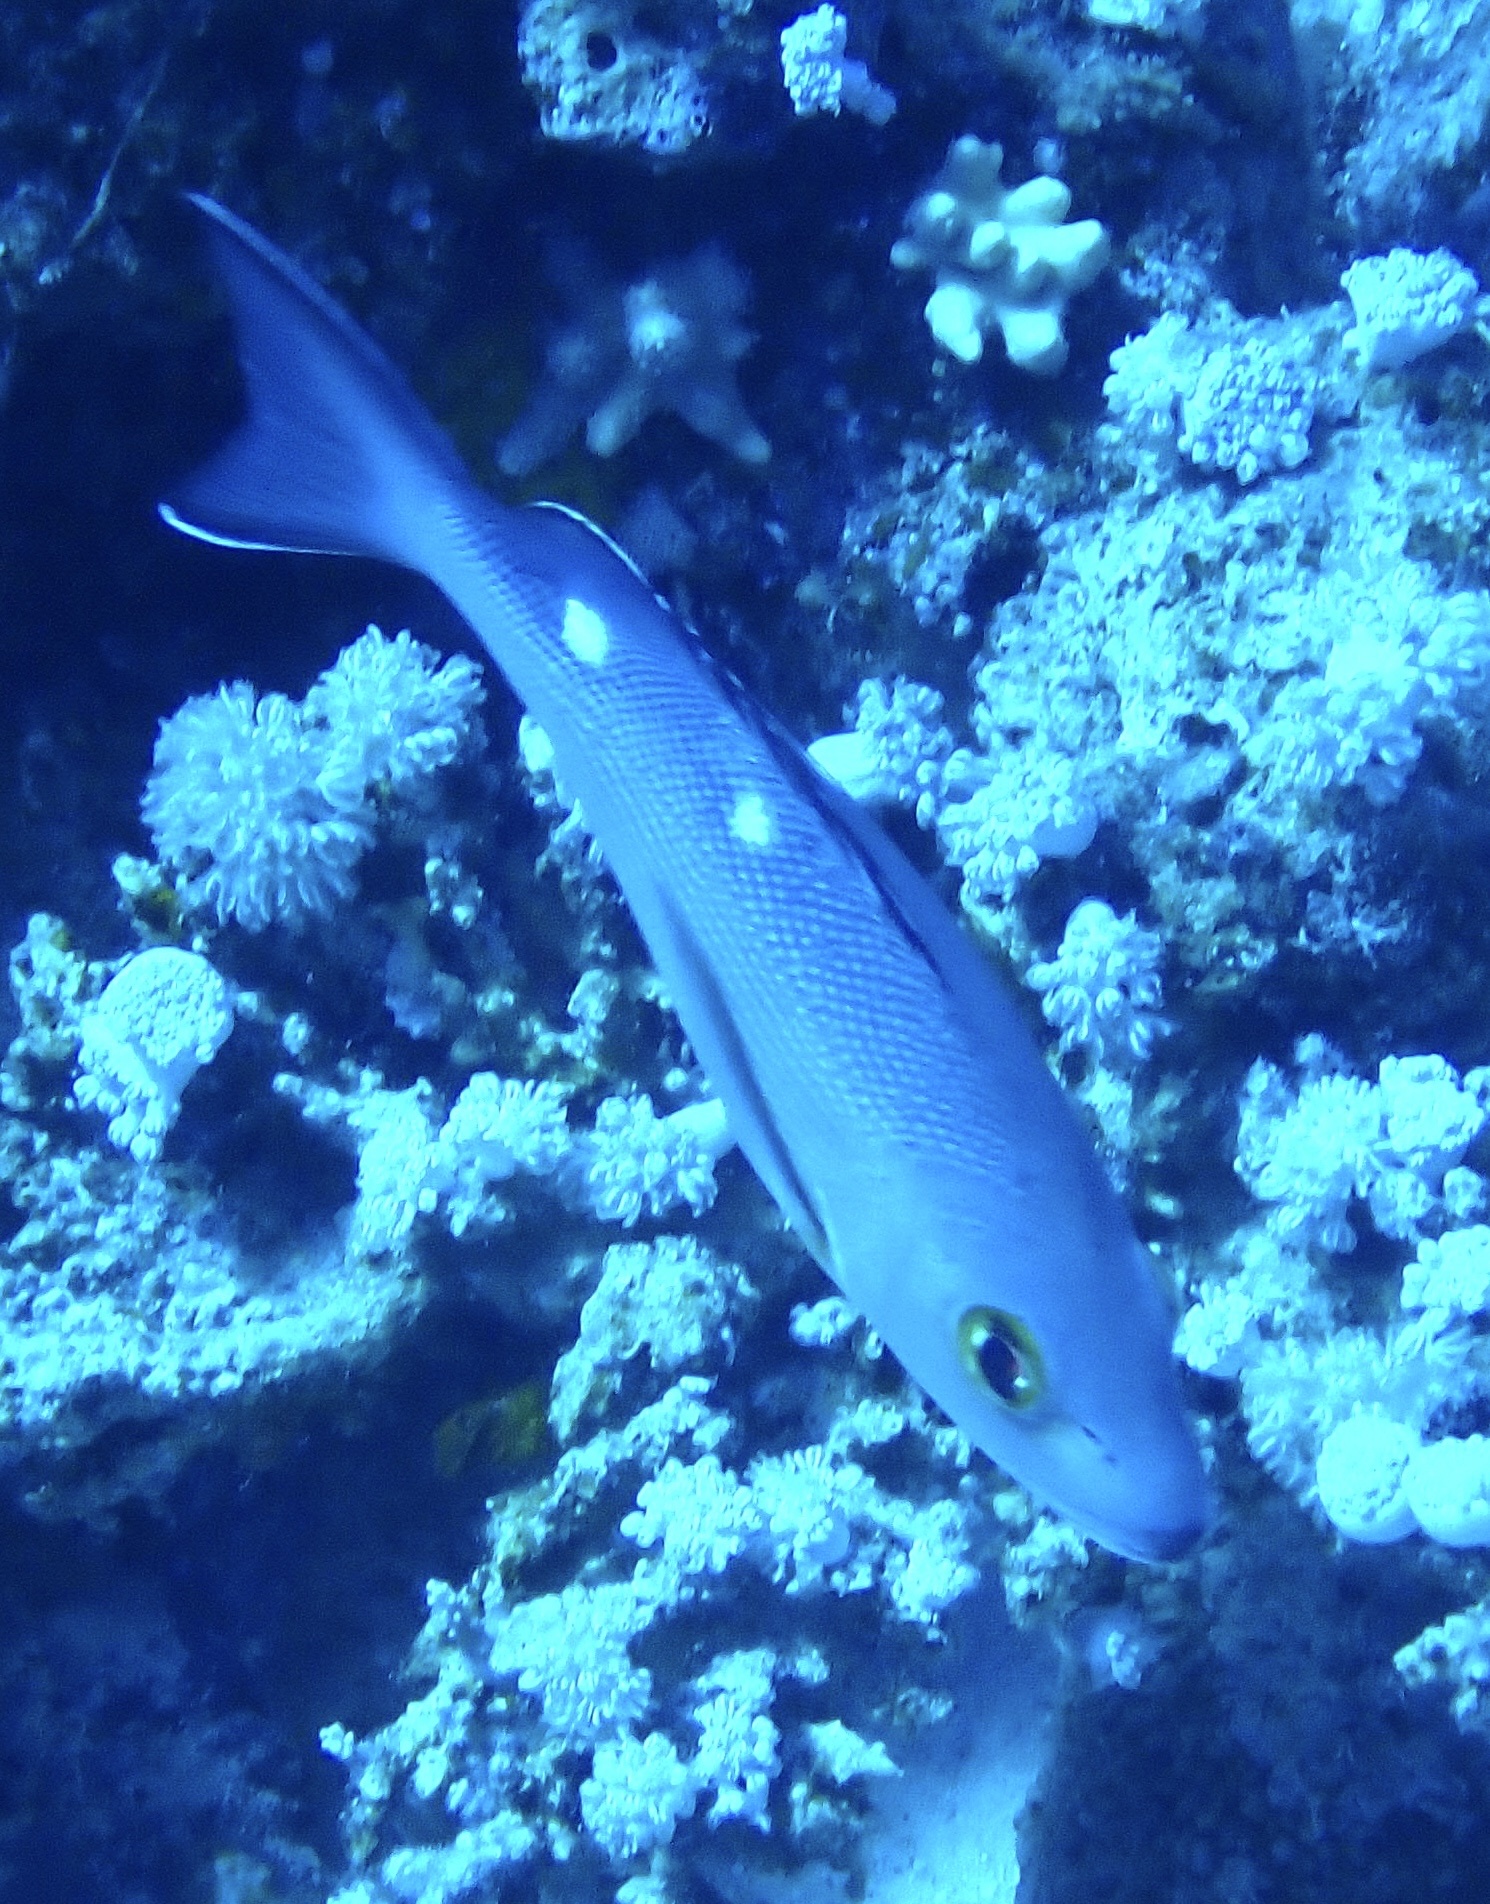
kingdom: Animalia
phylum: Chordata
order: Perciformes
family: Lutjanidae
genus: Lutjanus
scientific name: Lutjanus bohar
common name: Red bass
